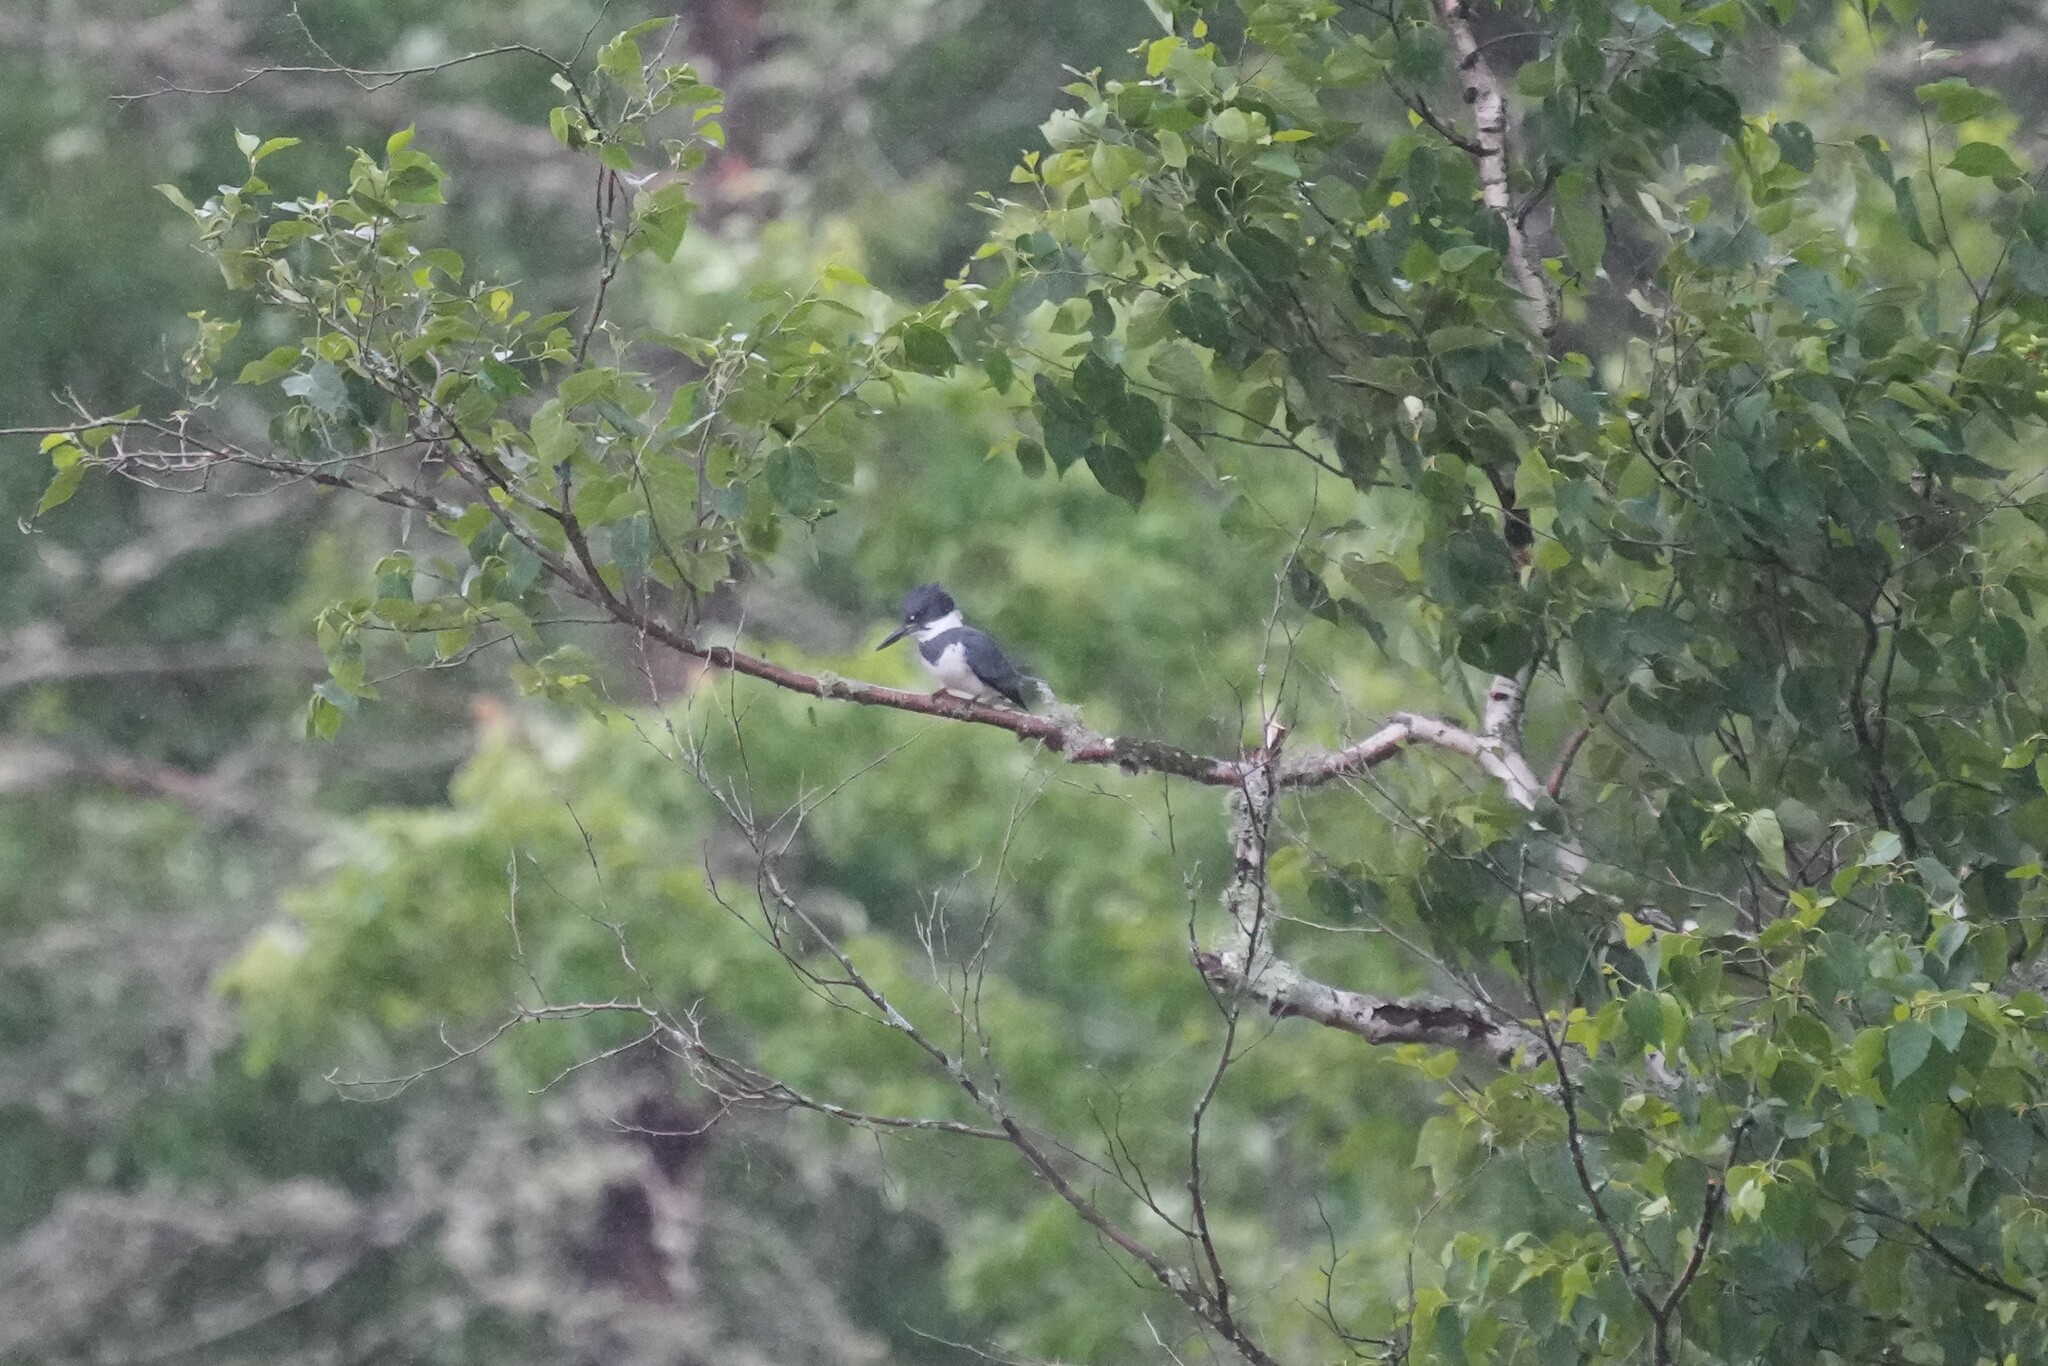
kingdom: Animalia
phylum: Chordata
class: Aves
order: Coraciiformes
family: Alcedinidae
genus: Megaceryle
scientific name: Megaceryle alcyon
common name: Belted kingfisher
